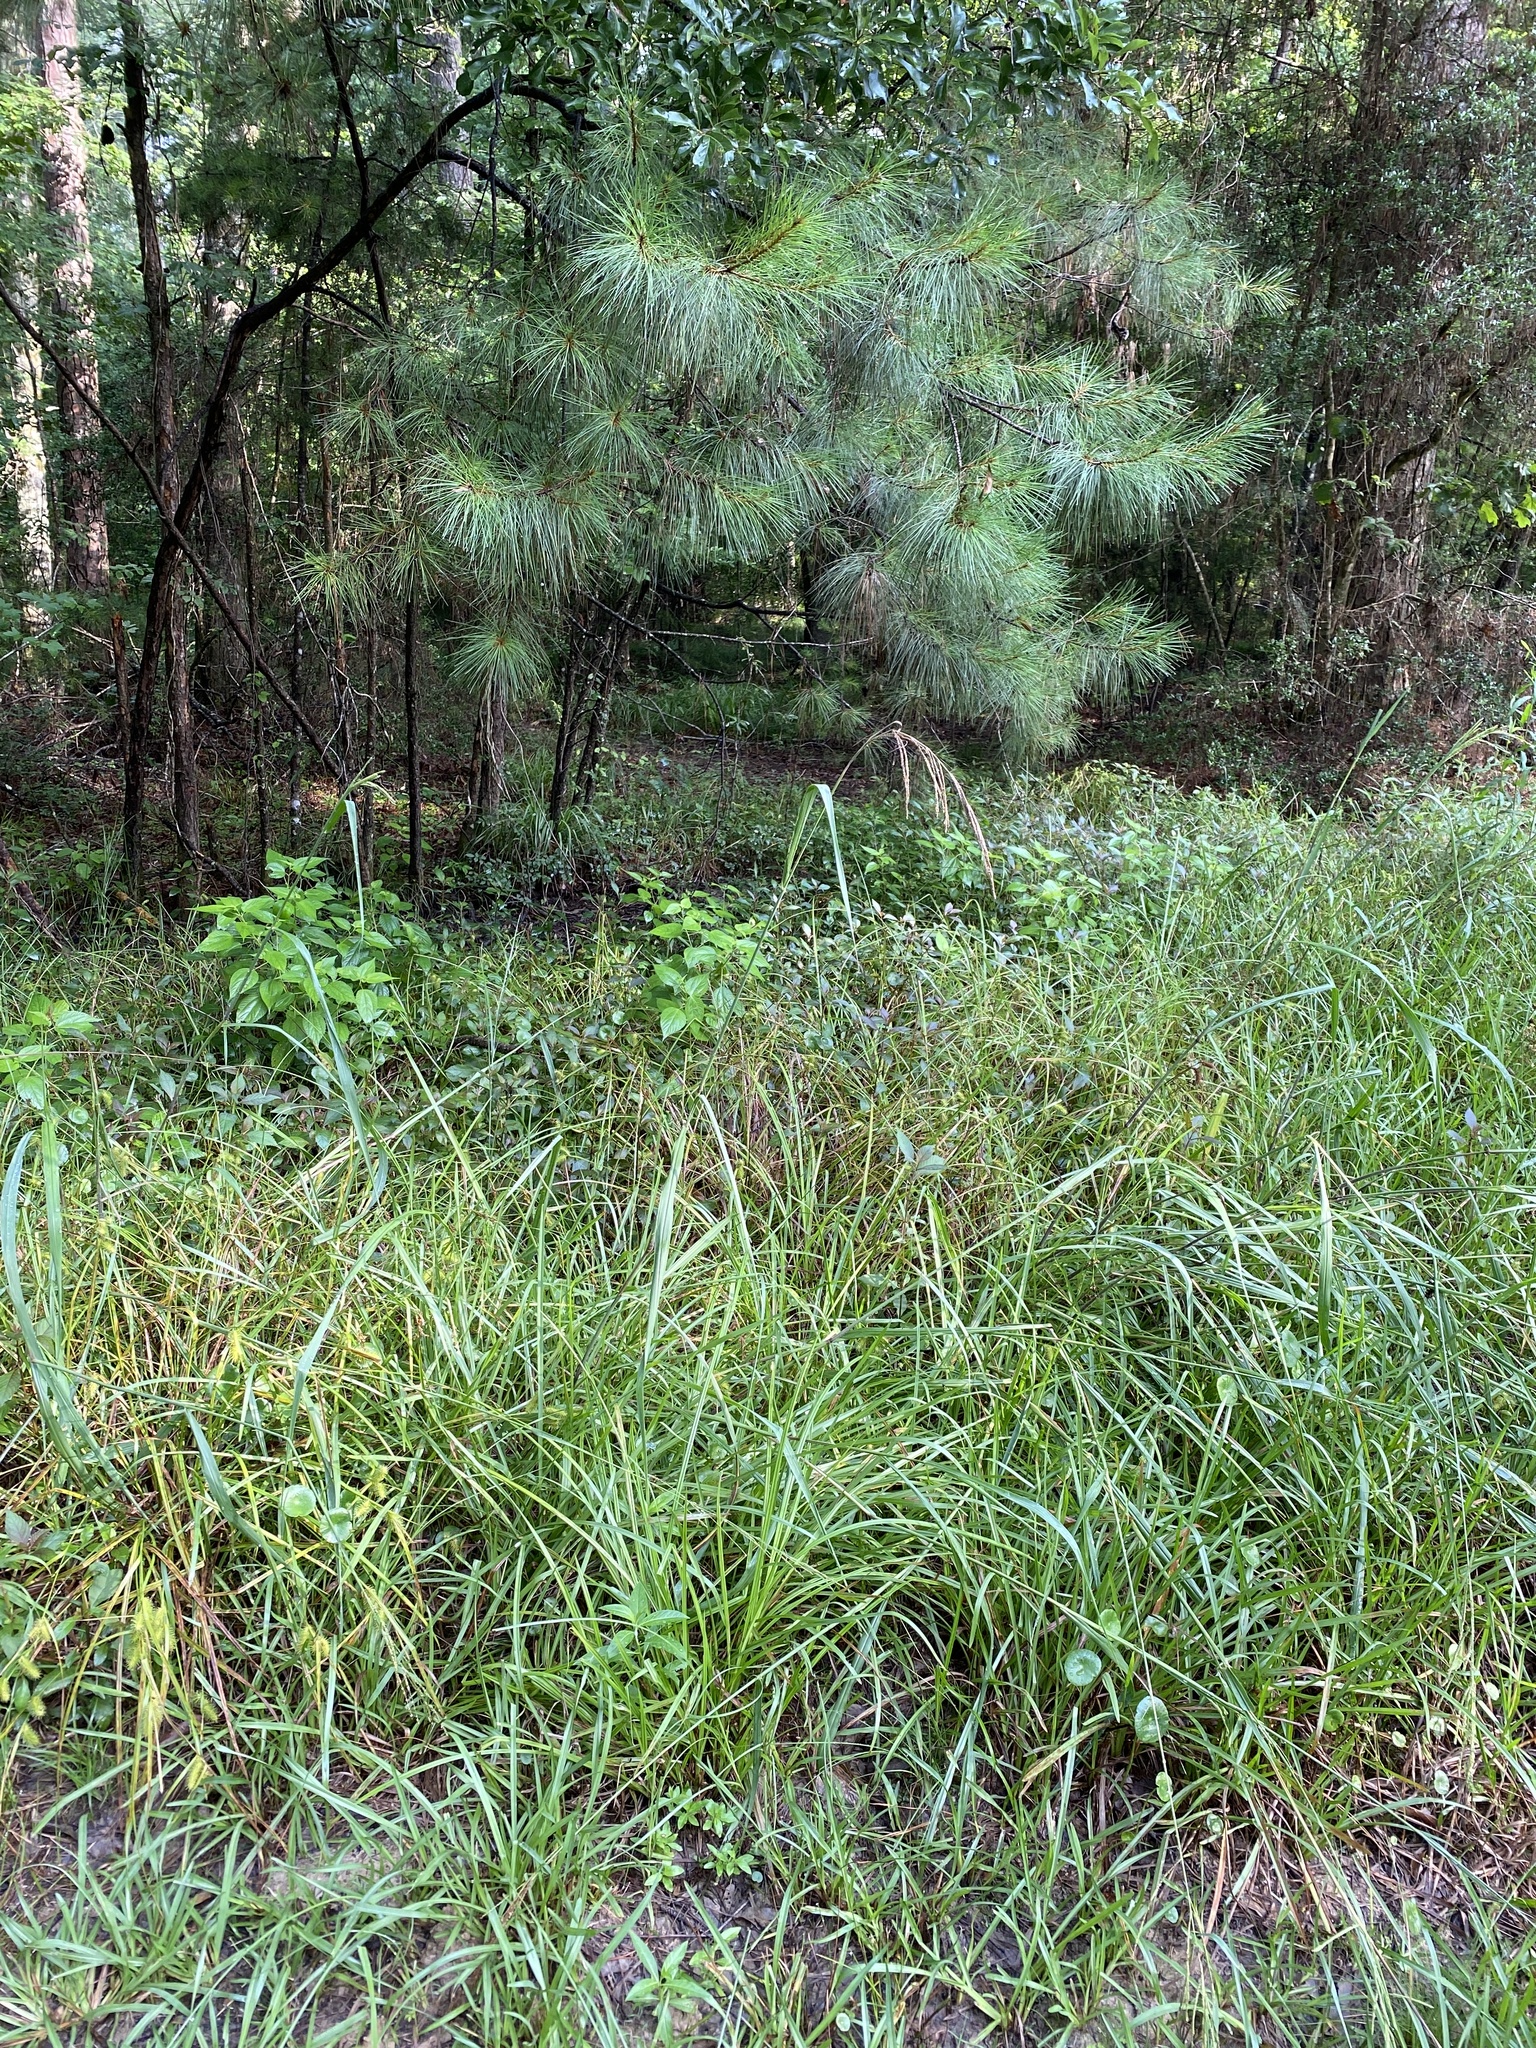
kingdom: Plantae
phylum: Tracheophyta
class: Liliopsida
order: Poales
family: Poaceae
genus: Paspalum
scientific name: Paspalum urvillei
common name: Vasey's grass
